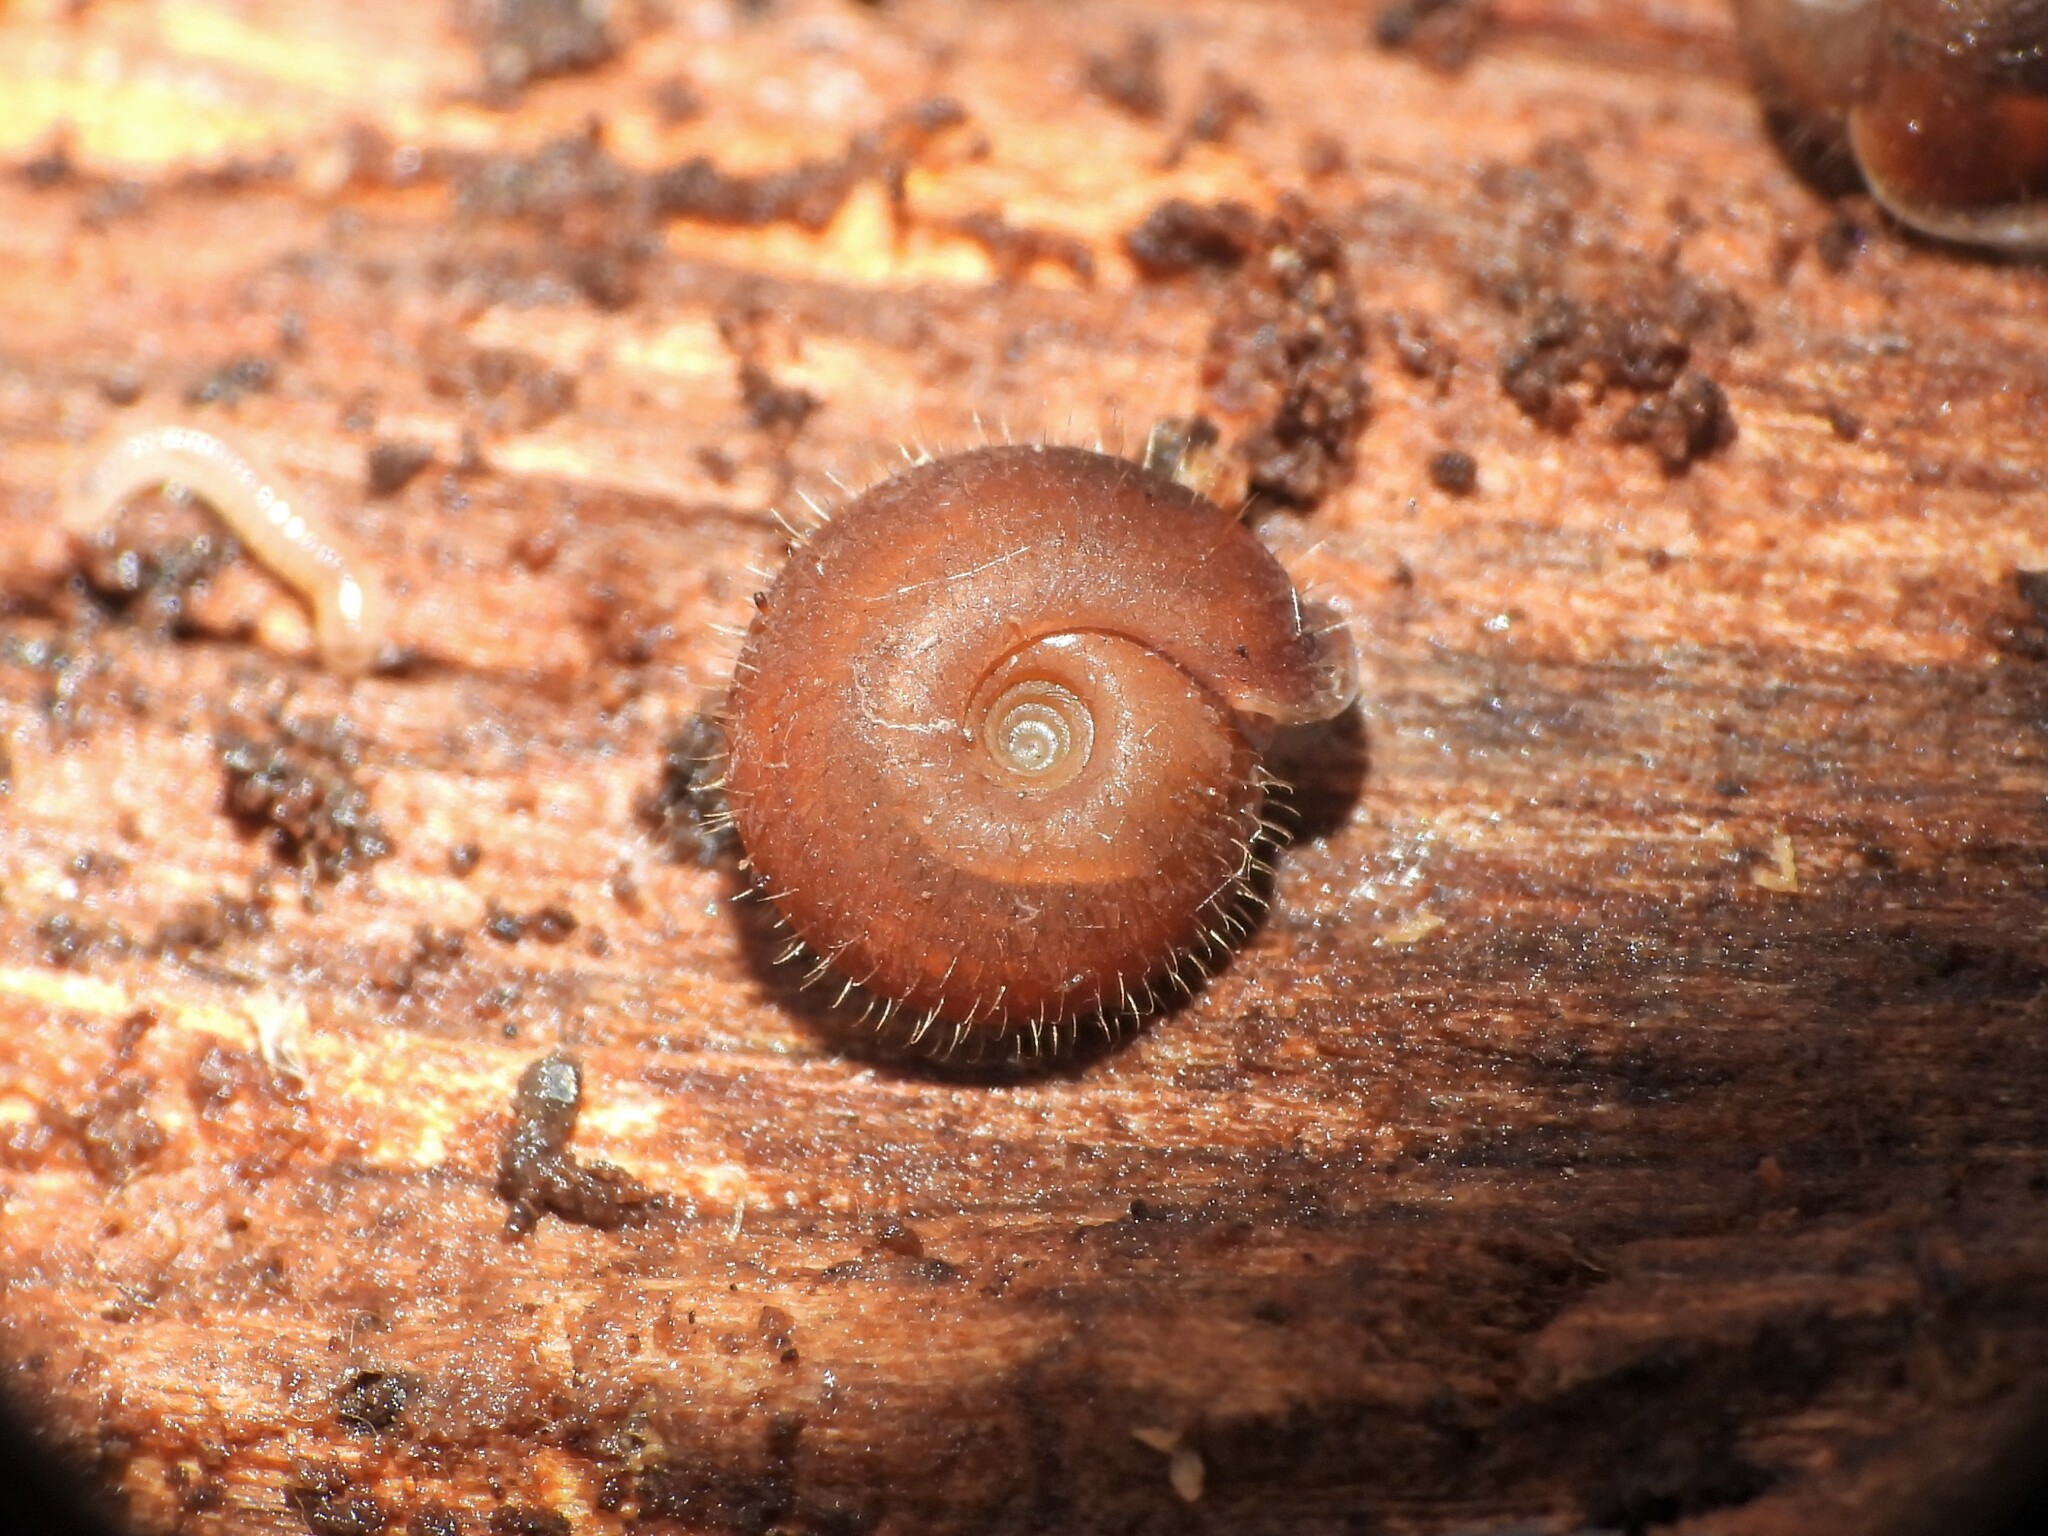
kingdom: Animalia
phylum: Mollusca
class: Gastropoda
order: Stylommatophora
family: Helicodontidae
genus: Drepanostoma
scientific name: Drepanostoma nautiliforme
